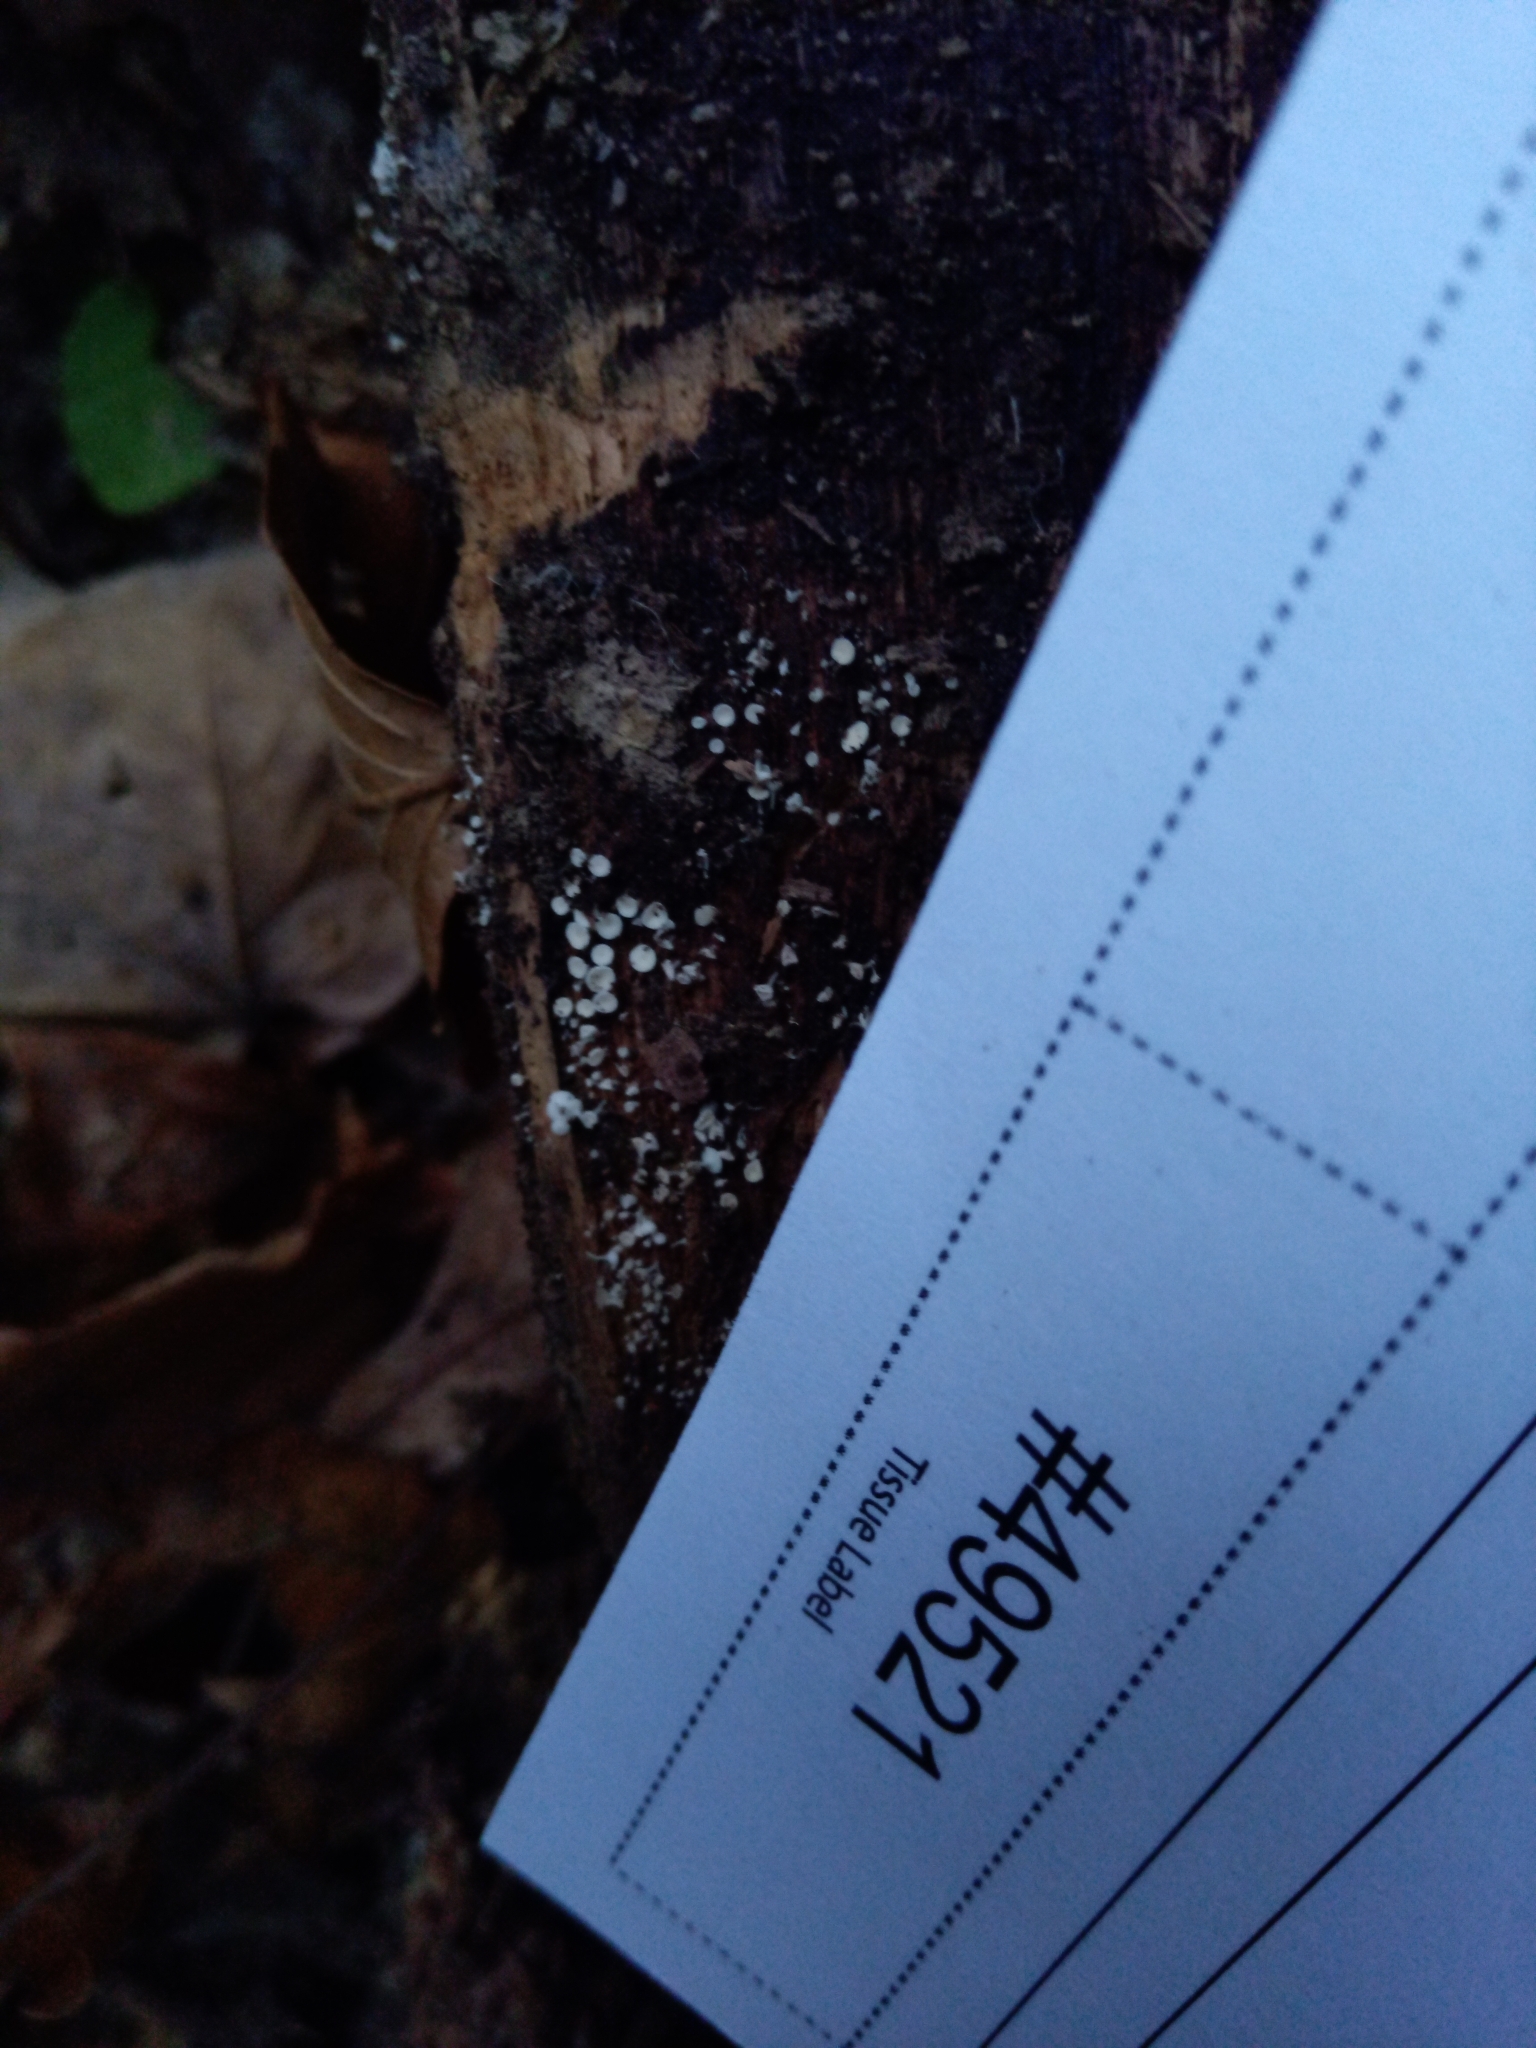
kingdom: Fungi
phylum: Ascomycota
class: Leotiomycetes
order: Helotiales
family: Lachnaceae
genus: Dasyscyphella
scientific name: Dasyscyphella nivea
